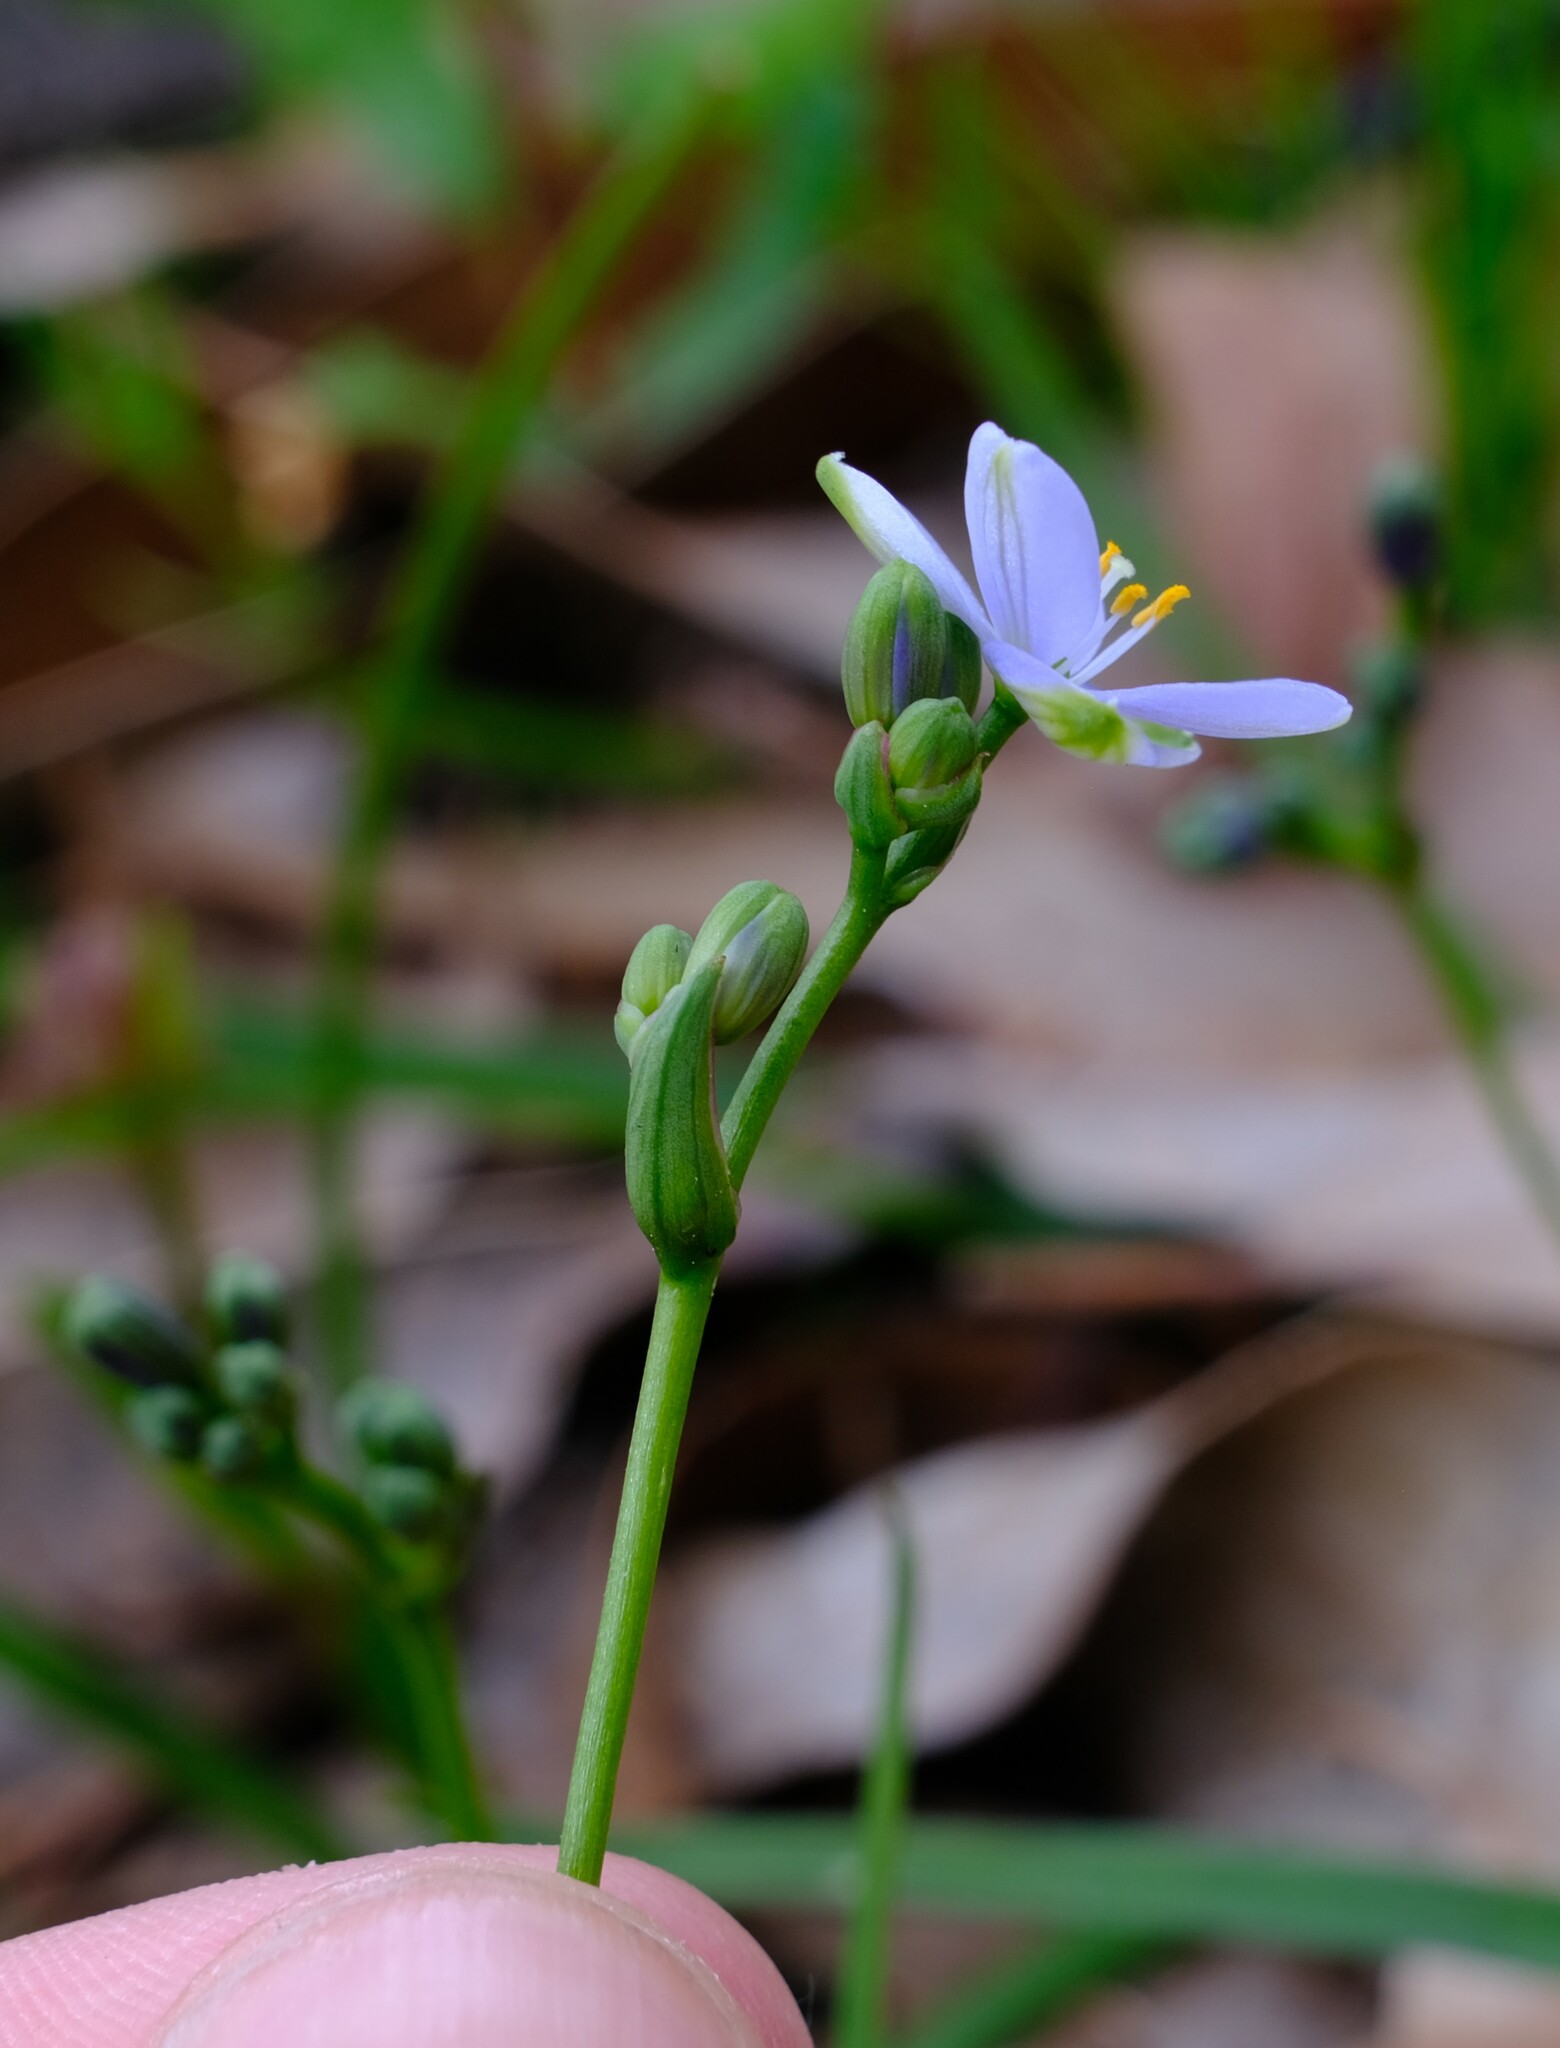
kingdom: Plantae
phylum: Tracheophyta
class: Liliopsida
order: Asparagales
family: Asphodelaceae
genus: Chamaescilla
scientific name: Chamaescilla corymbosa
